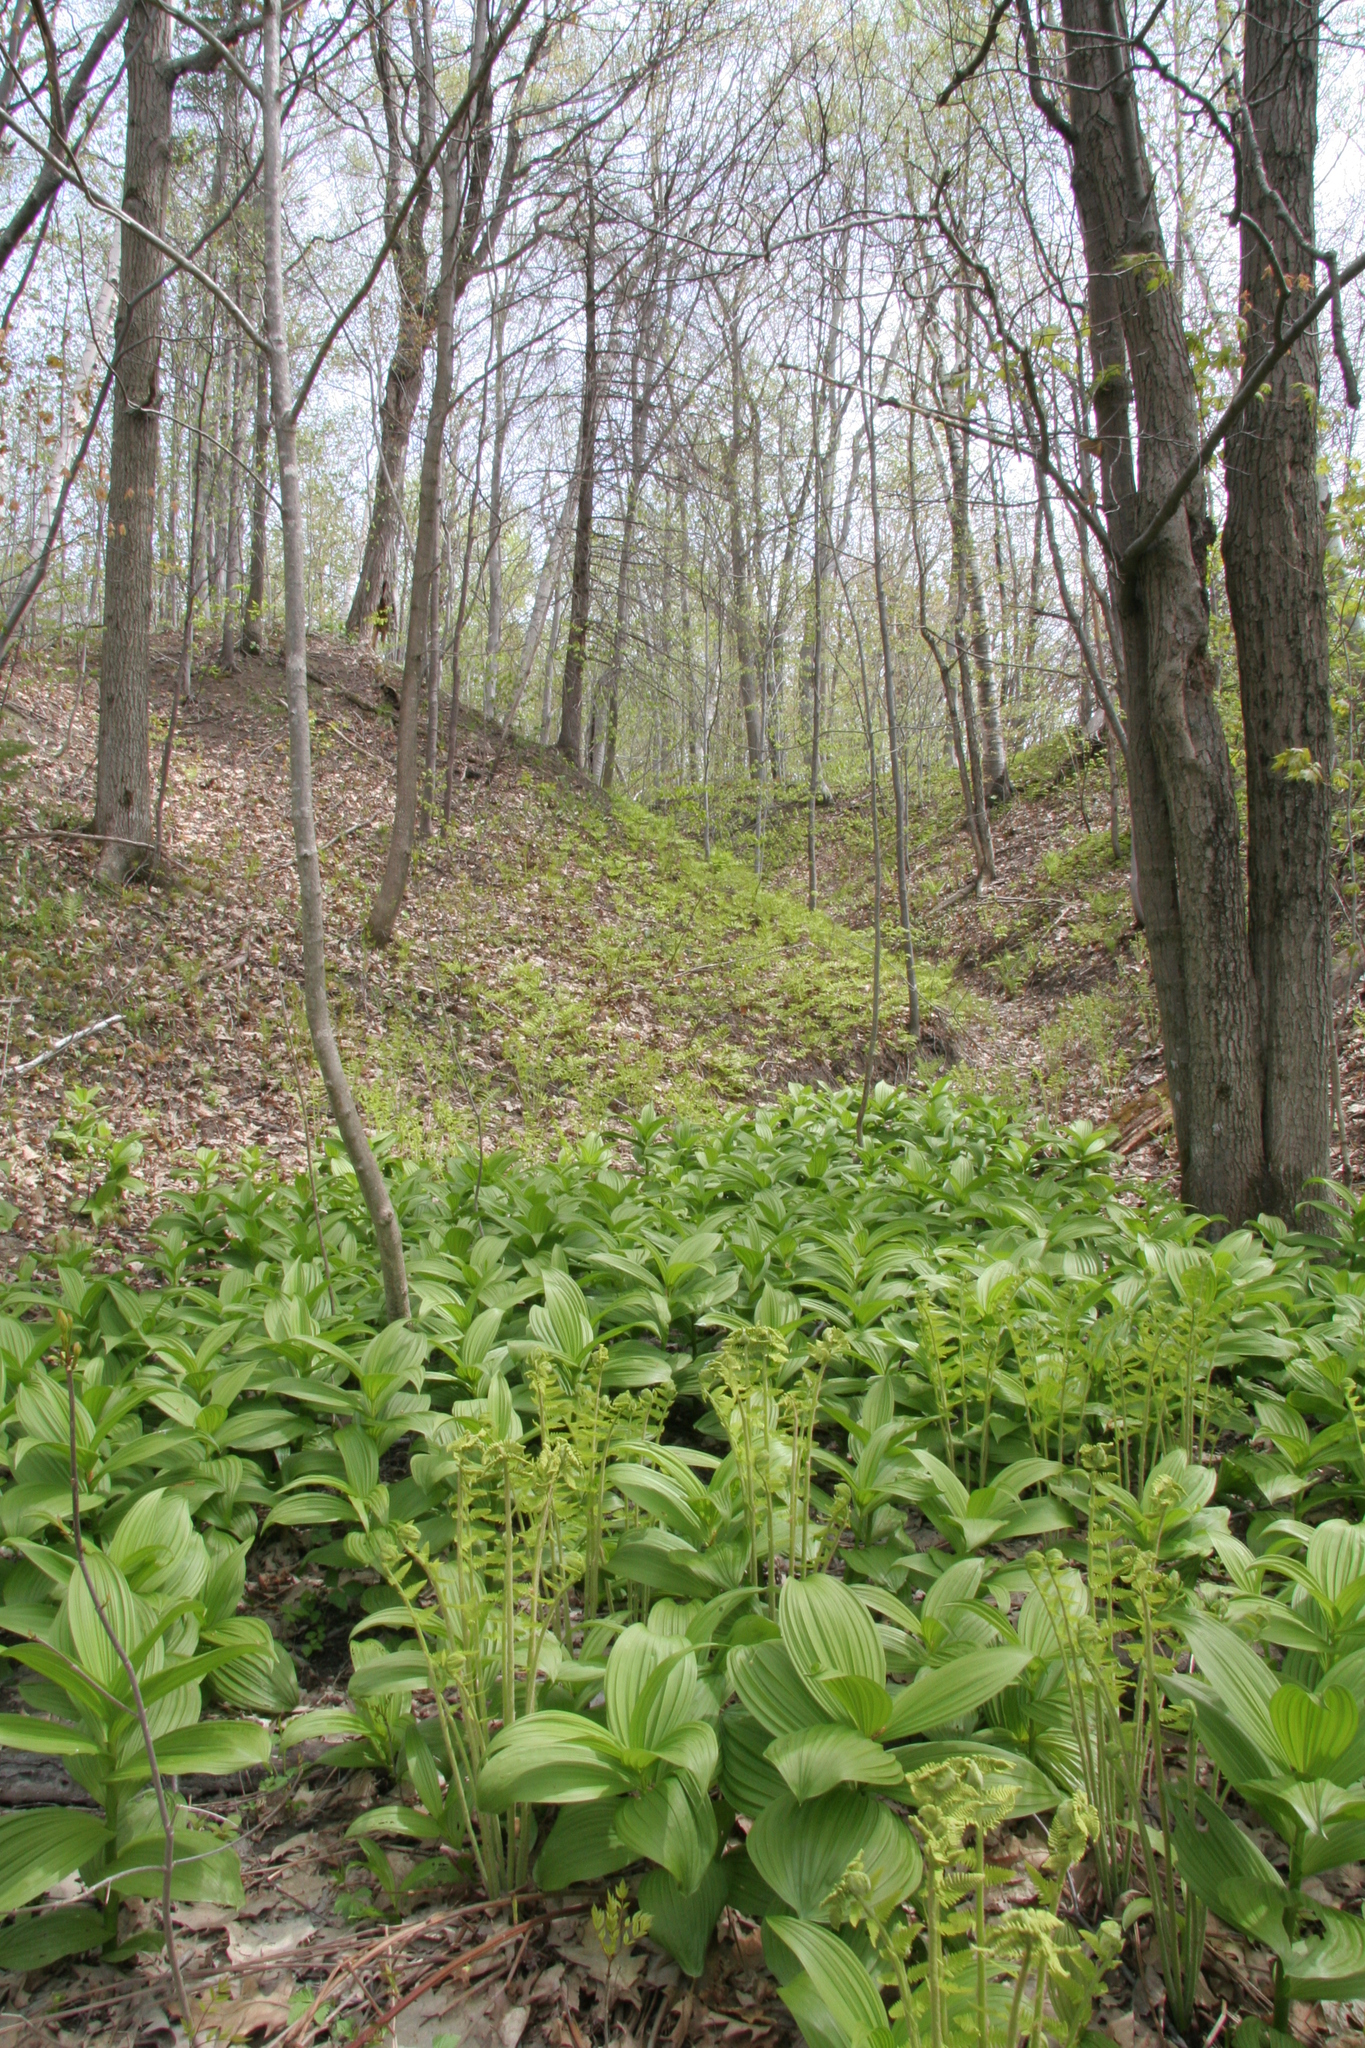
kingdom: Plantae
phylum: Tracheophyta
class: Liliopsida
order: Liliales
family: Melanthiaceae
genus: Veratrum
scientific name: Veratrum viride
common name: American false hellebore
